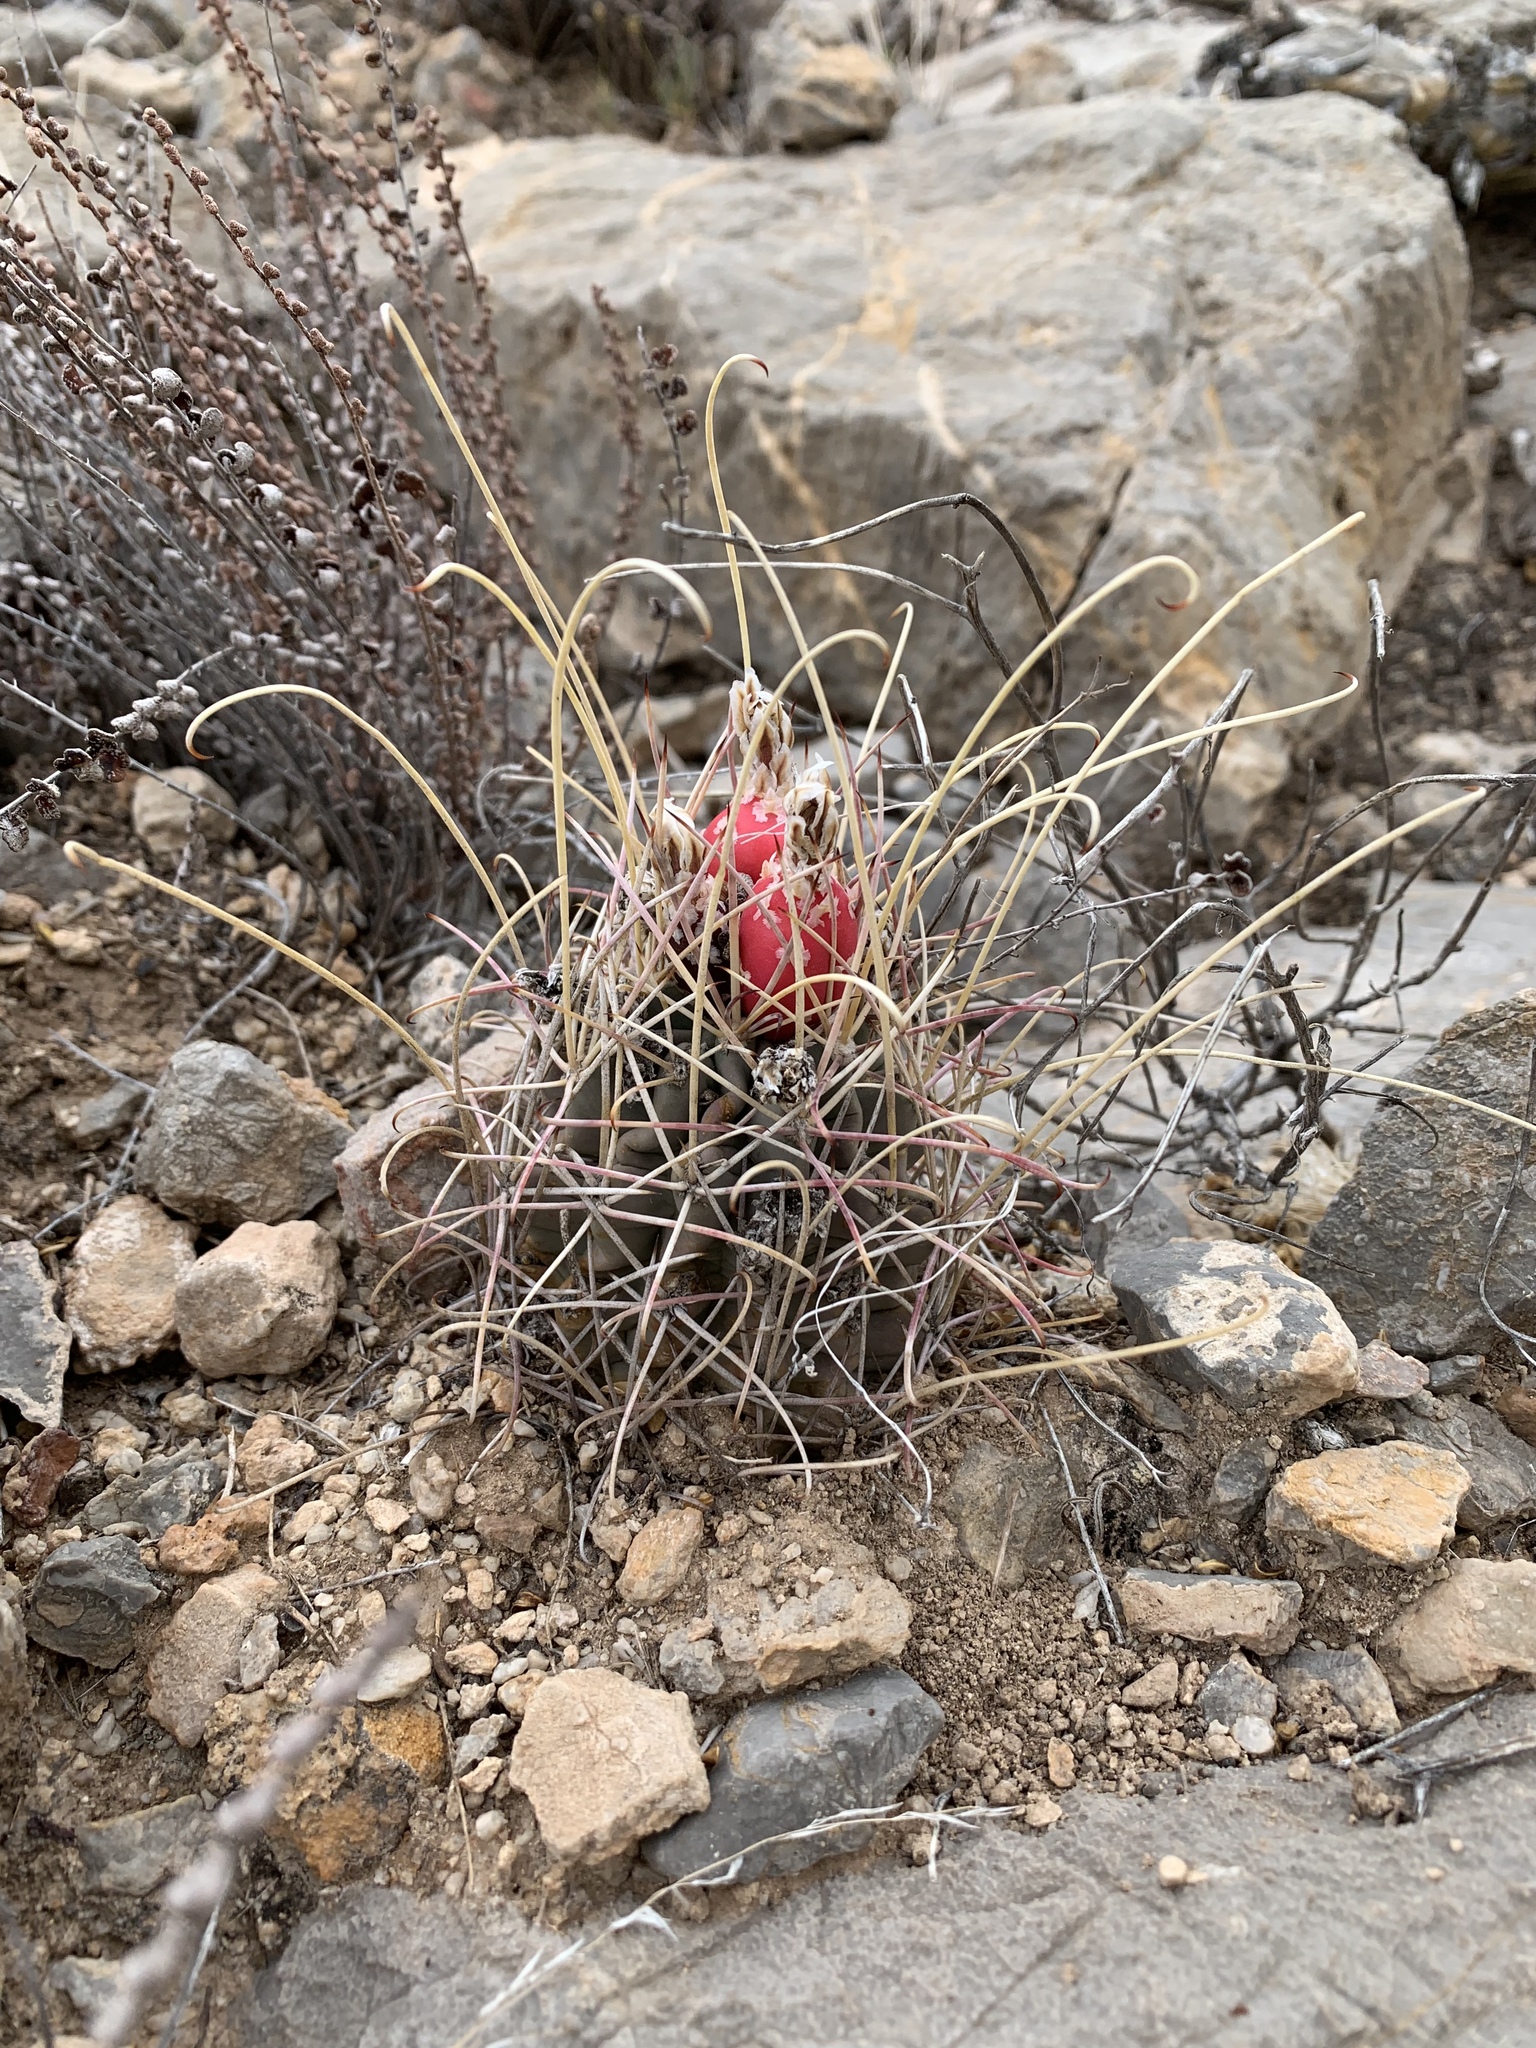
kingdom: Plantae
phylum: Tracheophyta
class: Magnoliopsida
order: Caryophyllales
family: Cactaceae
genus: Ferocactus
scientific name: Ferocactus uncinatus
